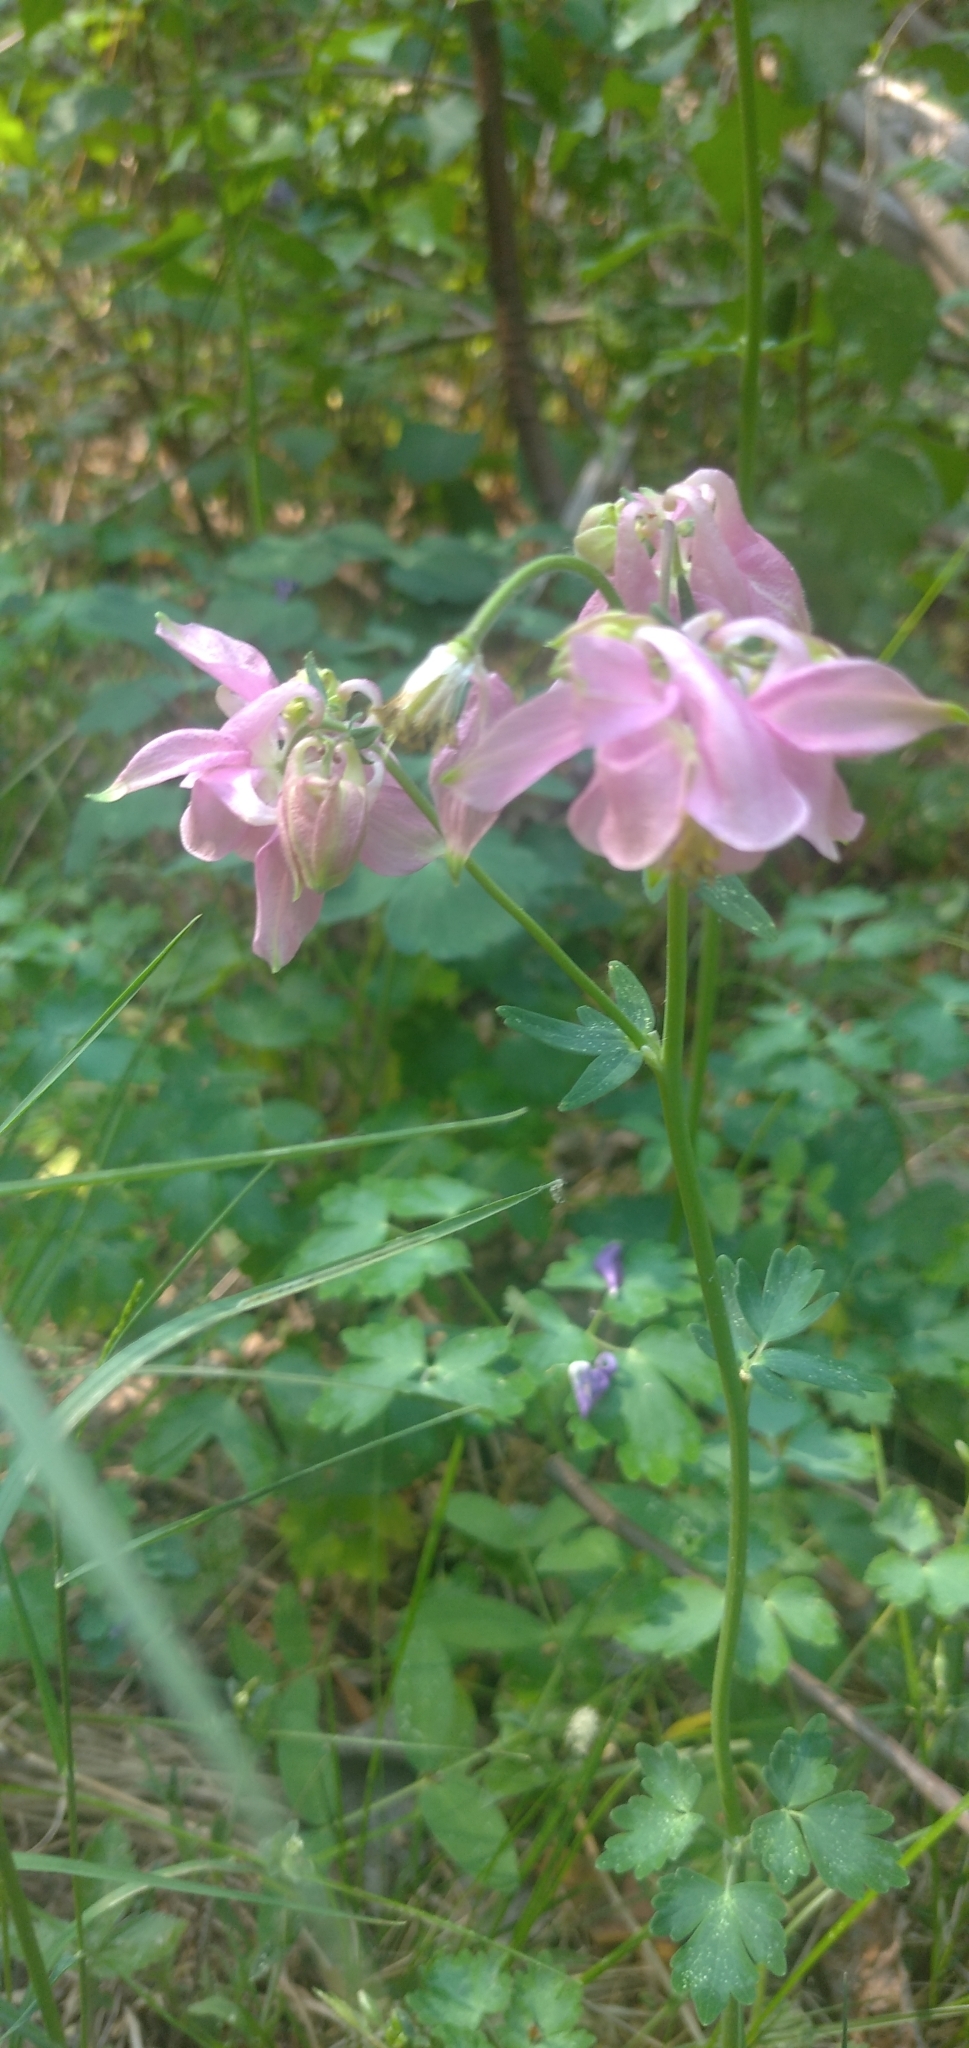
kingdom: Plantae
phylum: Tracheophyta
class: Magnoliopsida
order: Ranunculales
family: Ranunculaceae
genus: Aquilegia
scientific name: Aquilegia vulgaris
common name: Columbine
